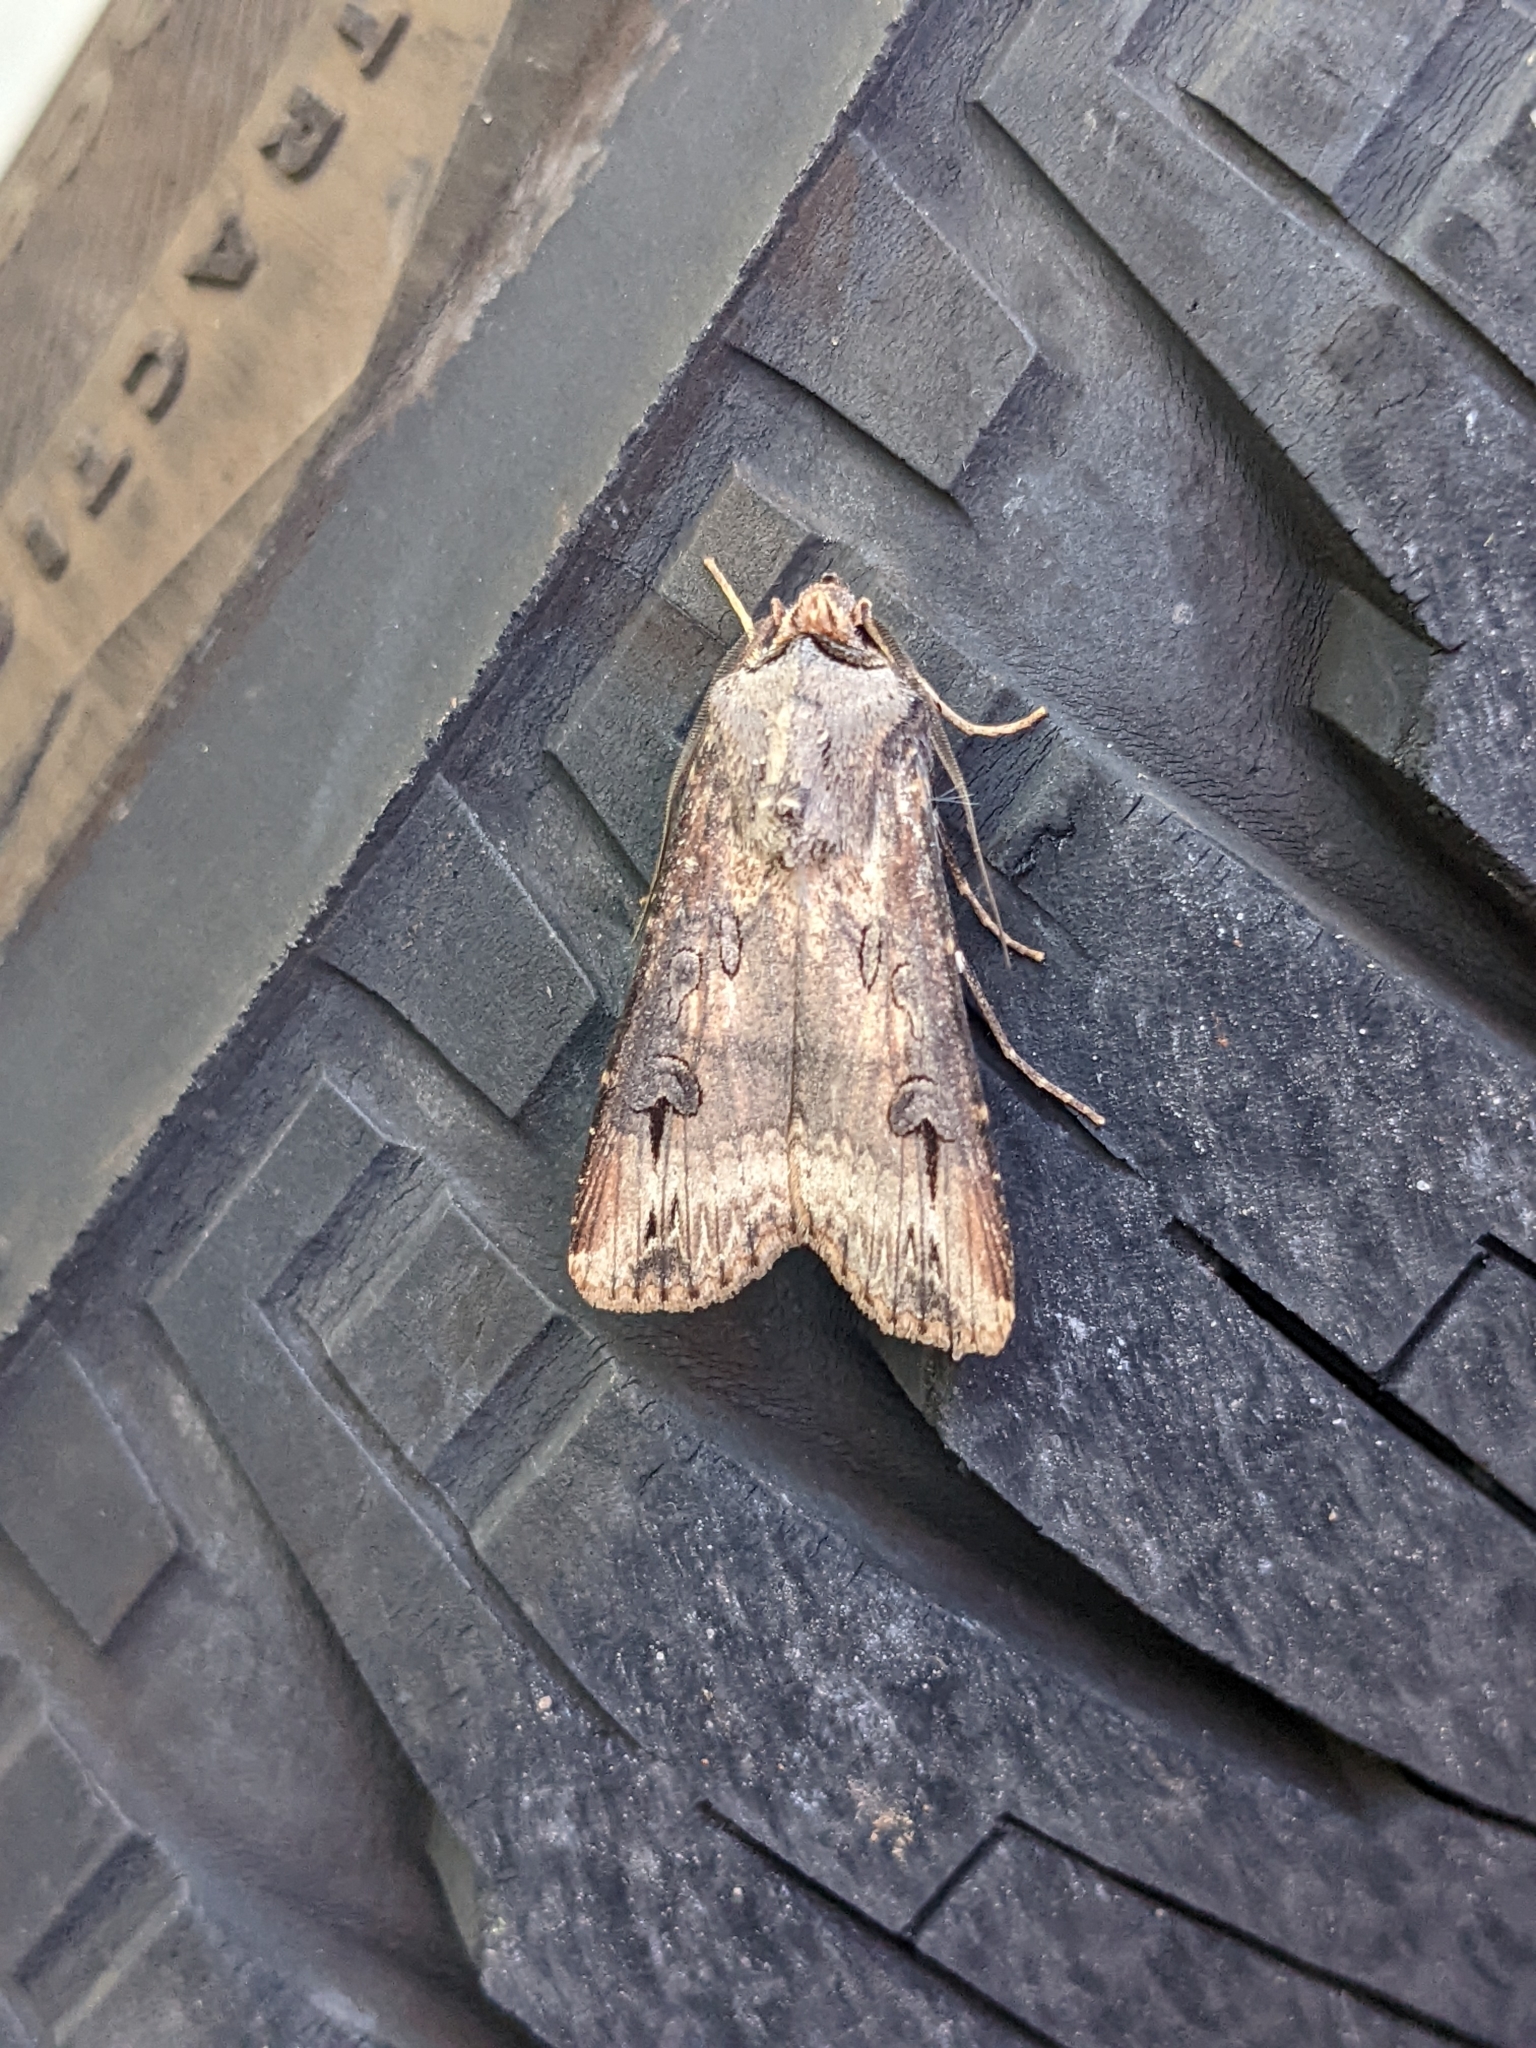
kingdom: Animalia
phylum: Arthropoda
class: Insecta
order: Lepidoptera
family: Noctuidae
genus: Agrotis
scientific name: Agrotis ipsilon
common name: Dark sword-grass
